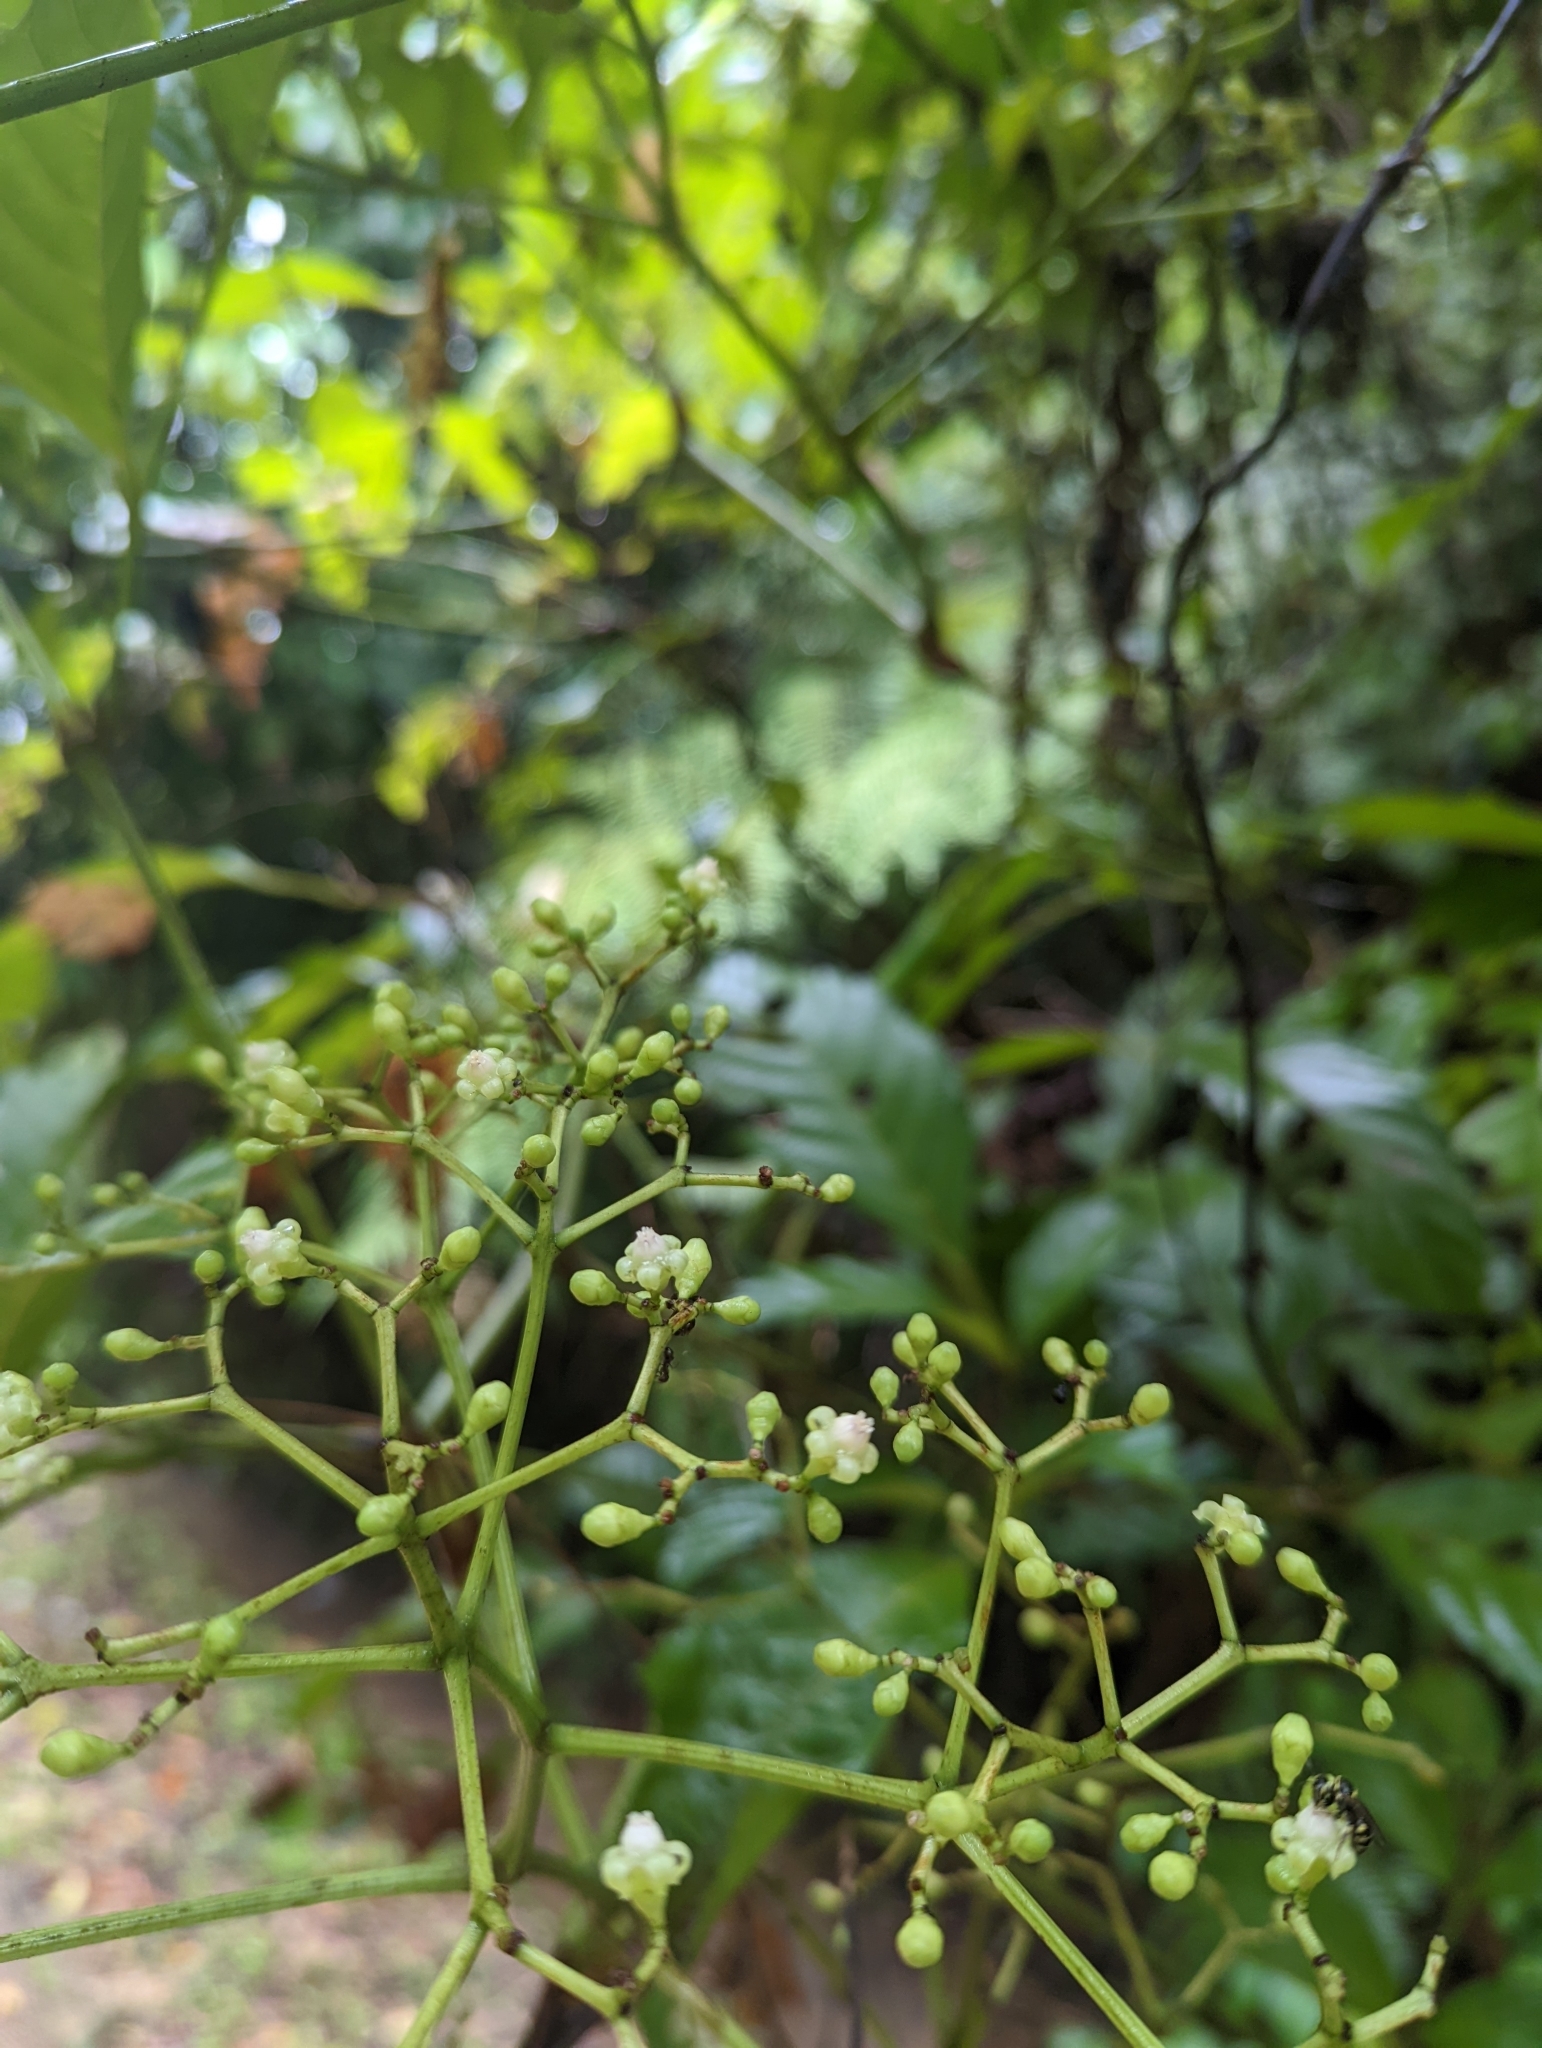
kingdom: Plantae
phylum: Tracheophyta
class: Magnoliopsida
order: Vitales
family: Vitaceae
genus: Leea
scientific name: Leea indica
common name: Bandicoot-berry
